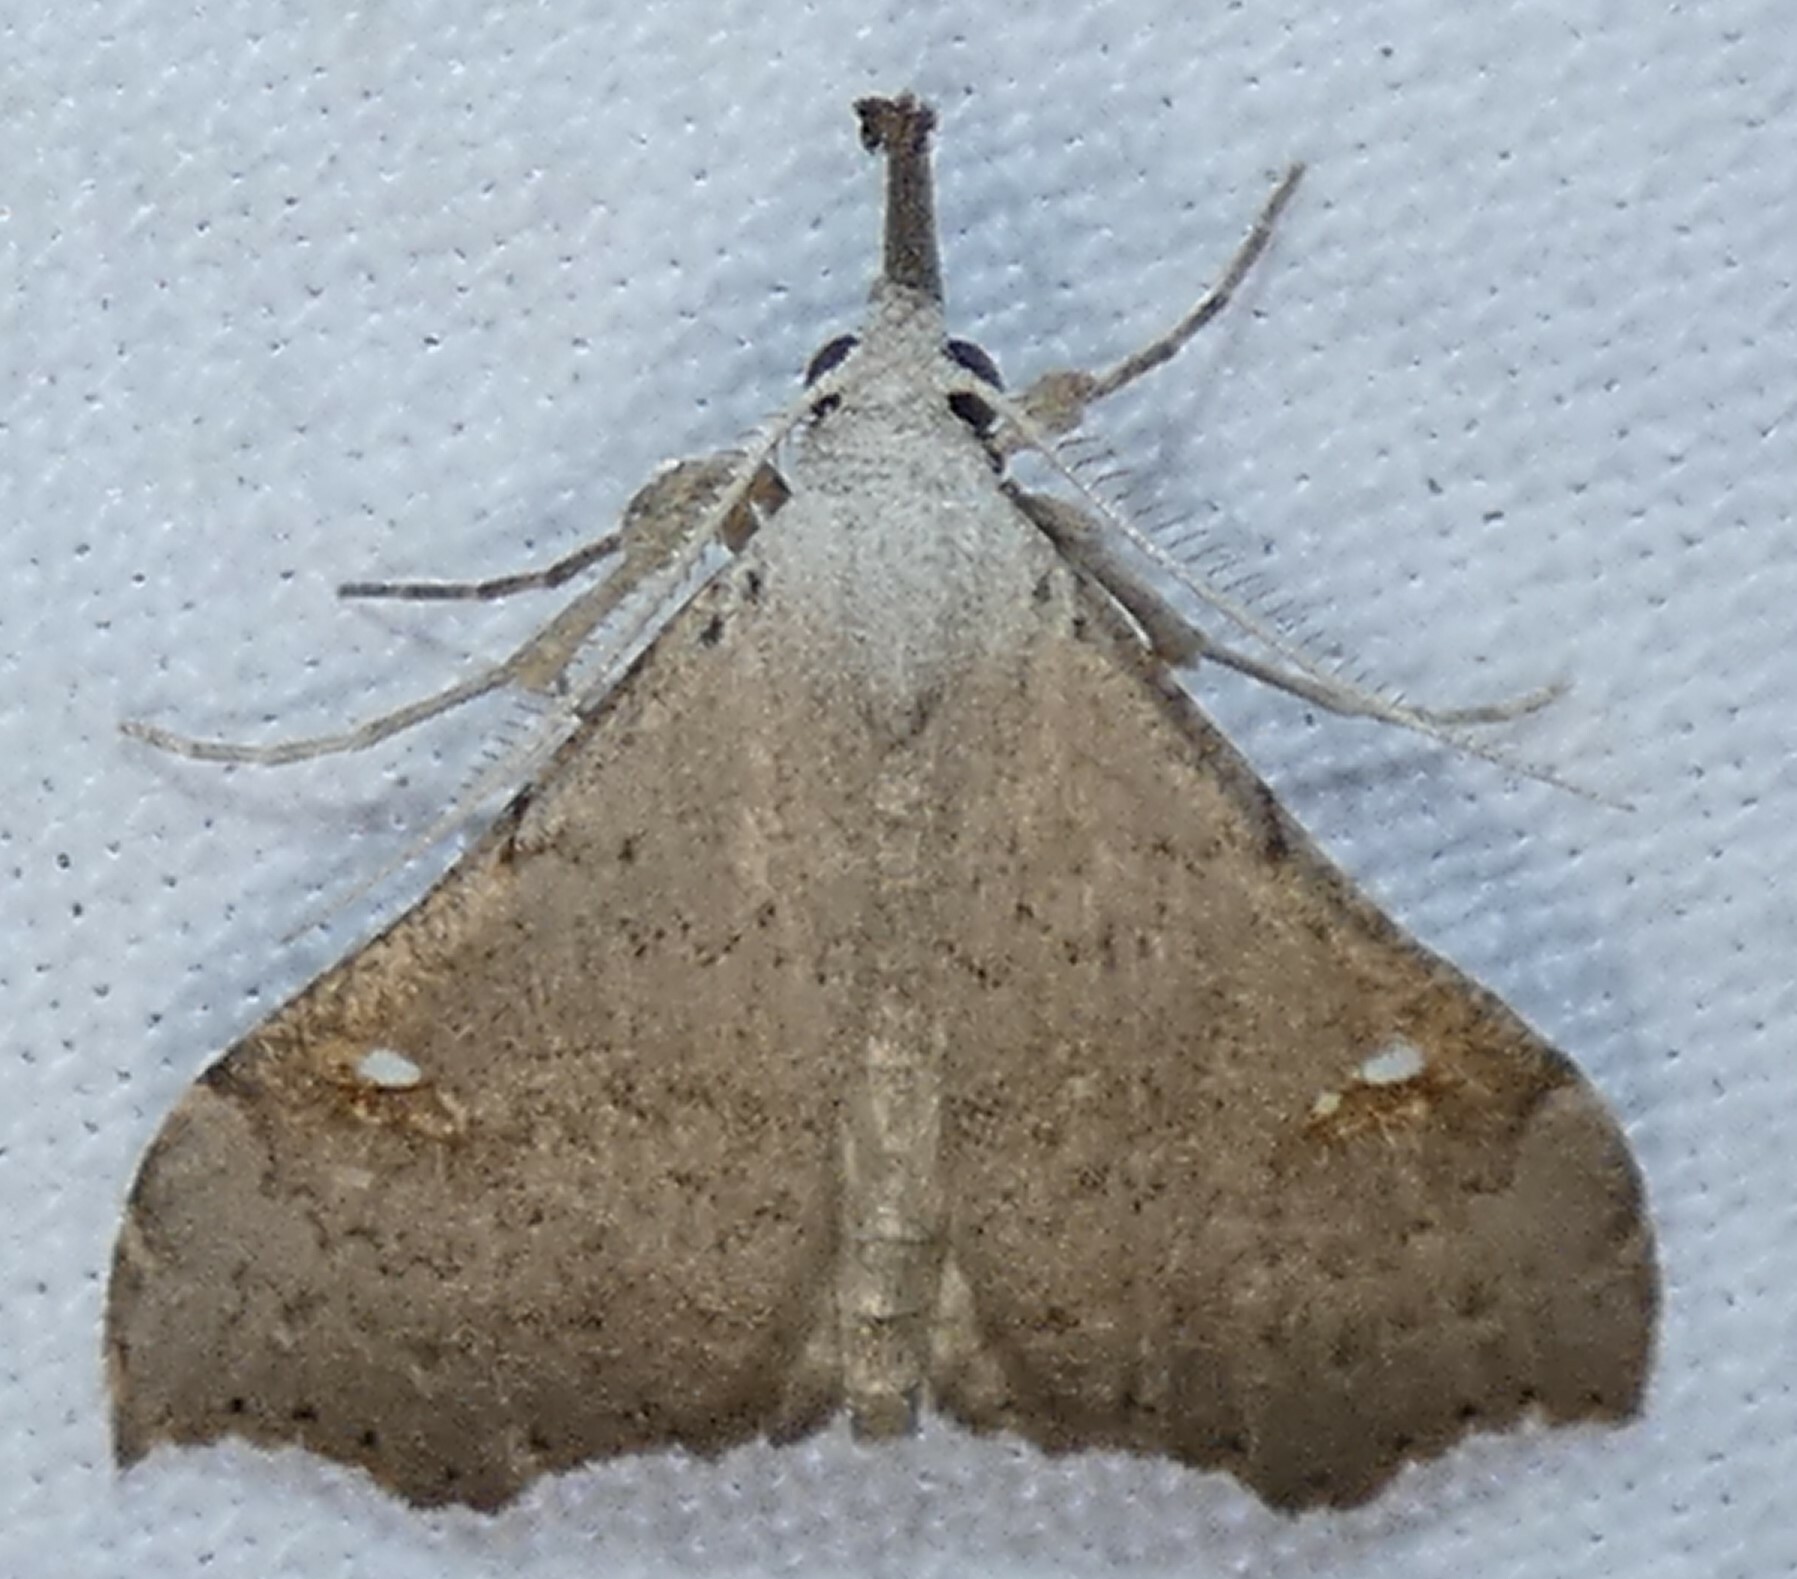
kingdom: Animalia
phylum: Arthropoda
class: Insecta
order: Lepidoptera
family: Erebidae
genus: Redectis
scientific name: Redectis vitrea
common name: White-spotted redectis
